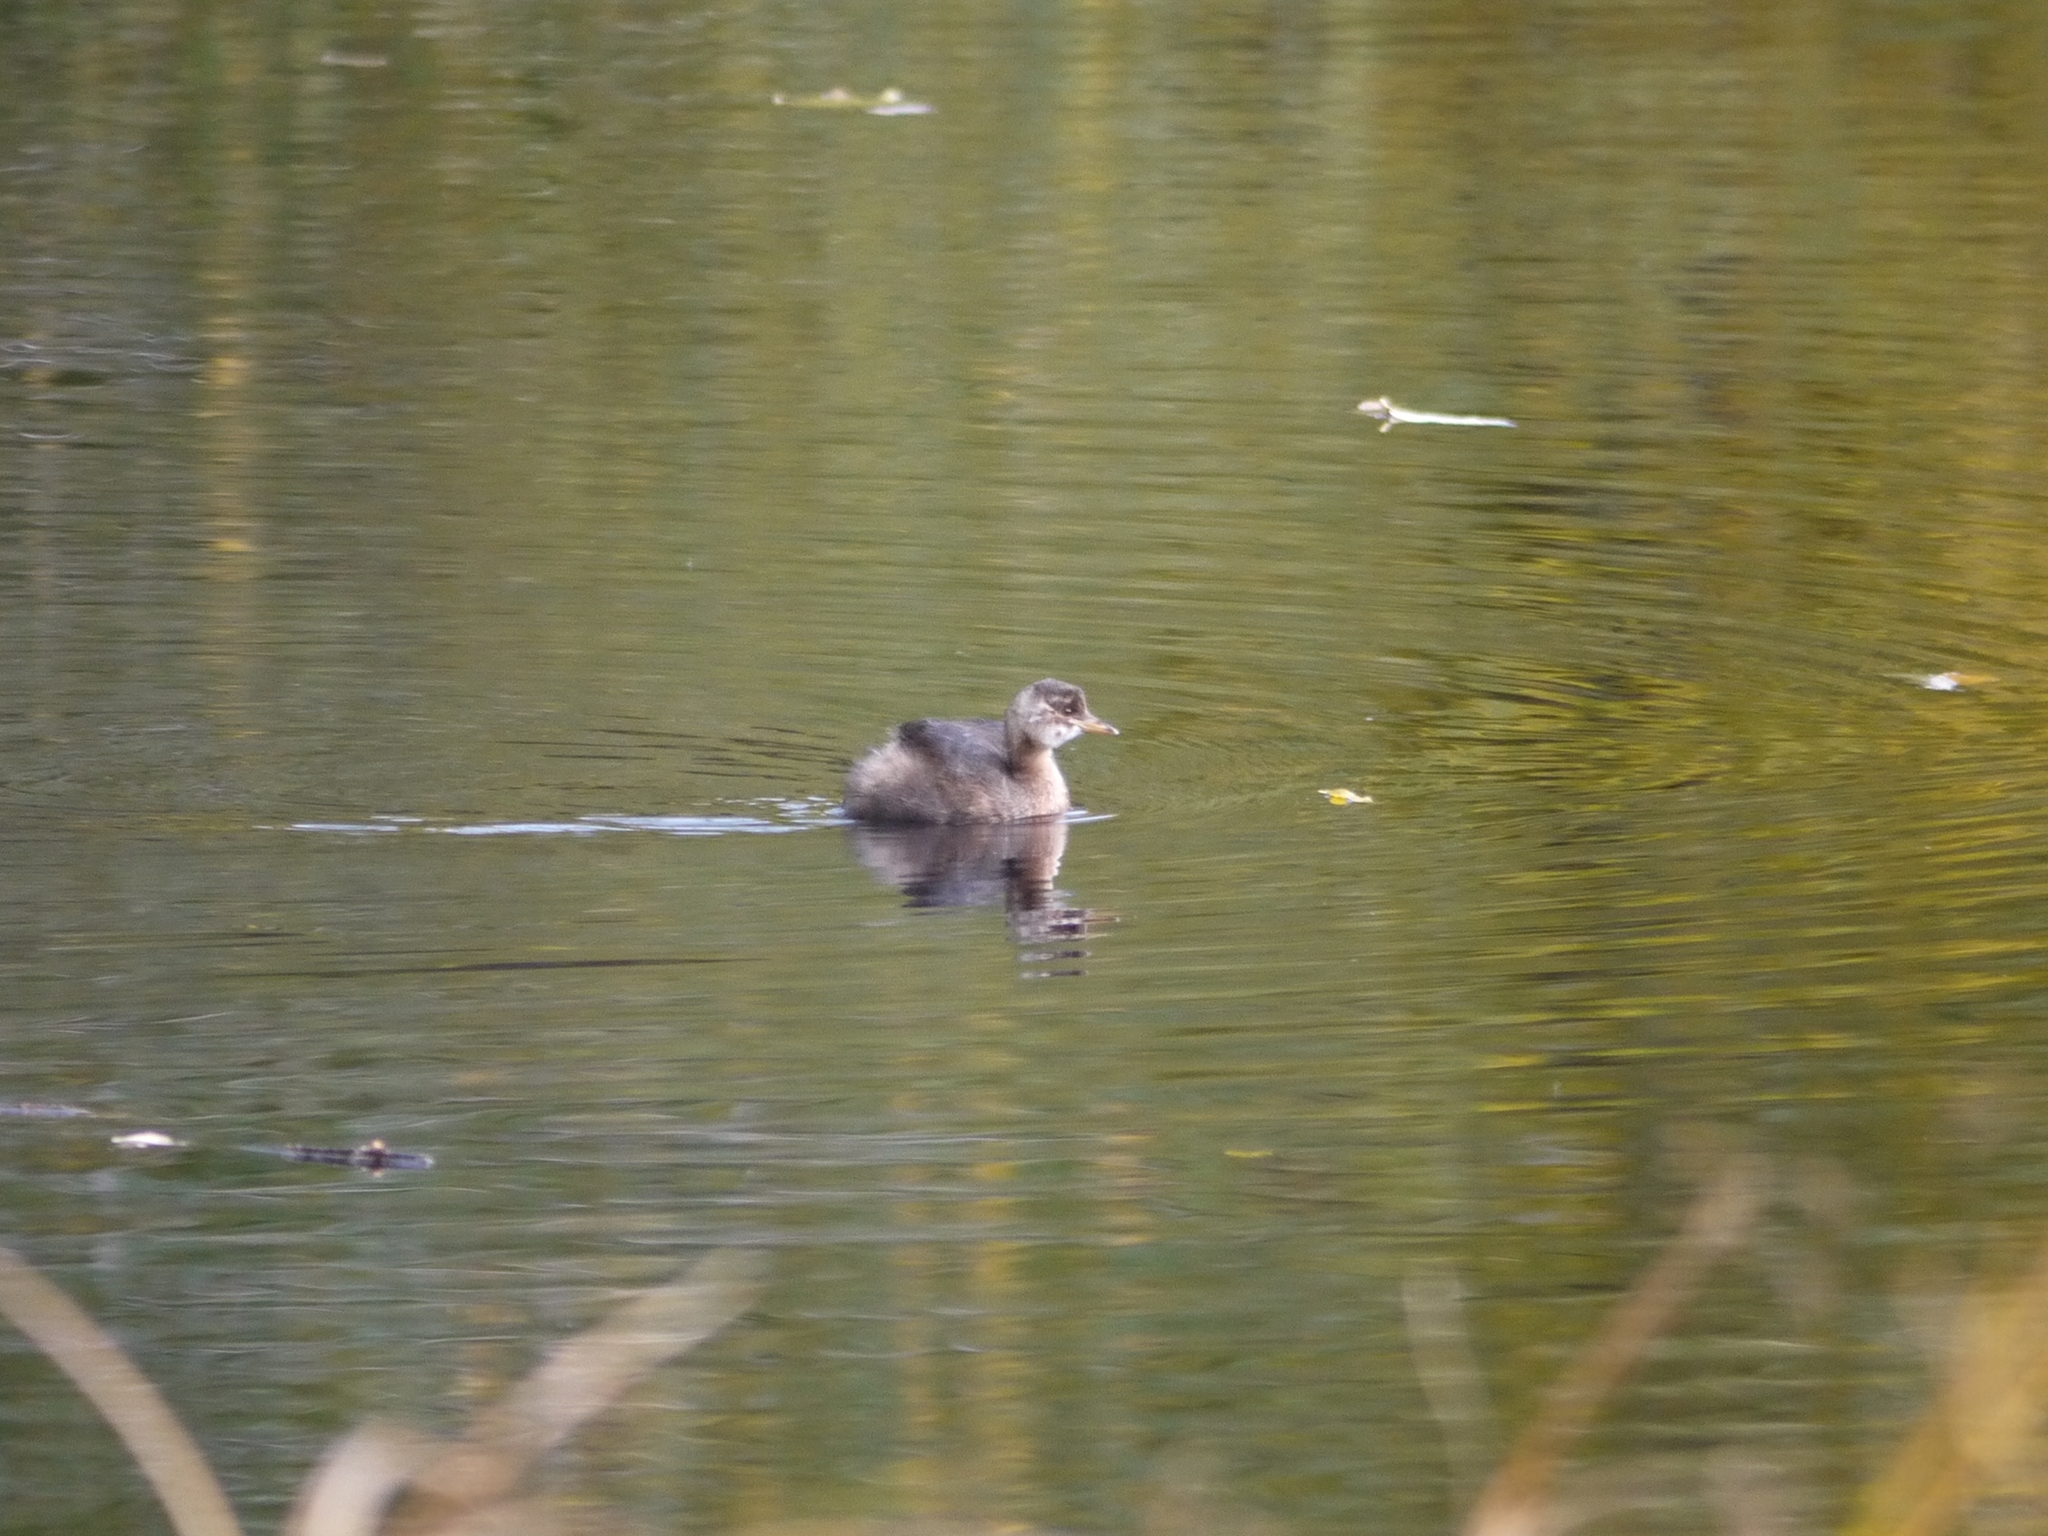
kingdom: Animalia
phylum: Chordata
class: Aves
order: Podicipediformes
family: Podicipedidae
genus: Tachybaptus
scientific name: Tachybaptus ruficollis
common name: Little grebe
